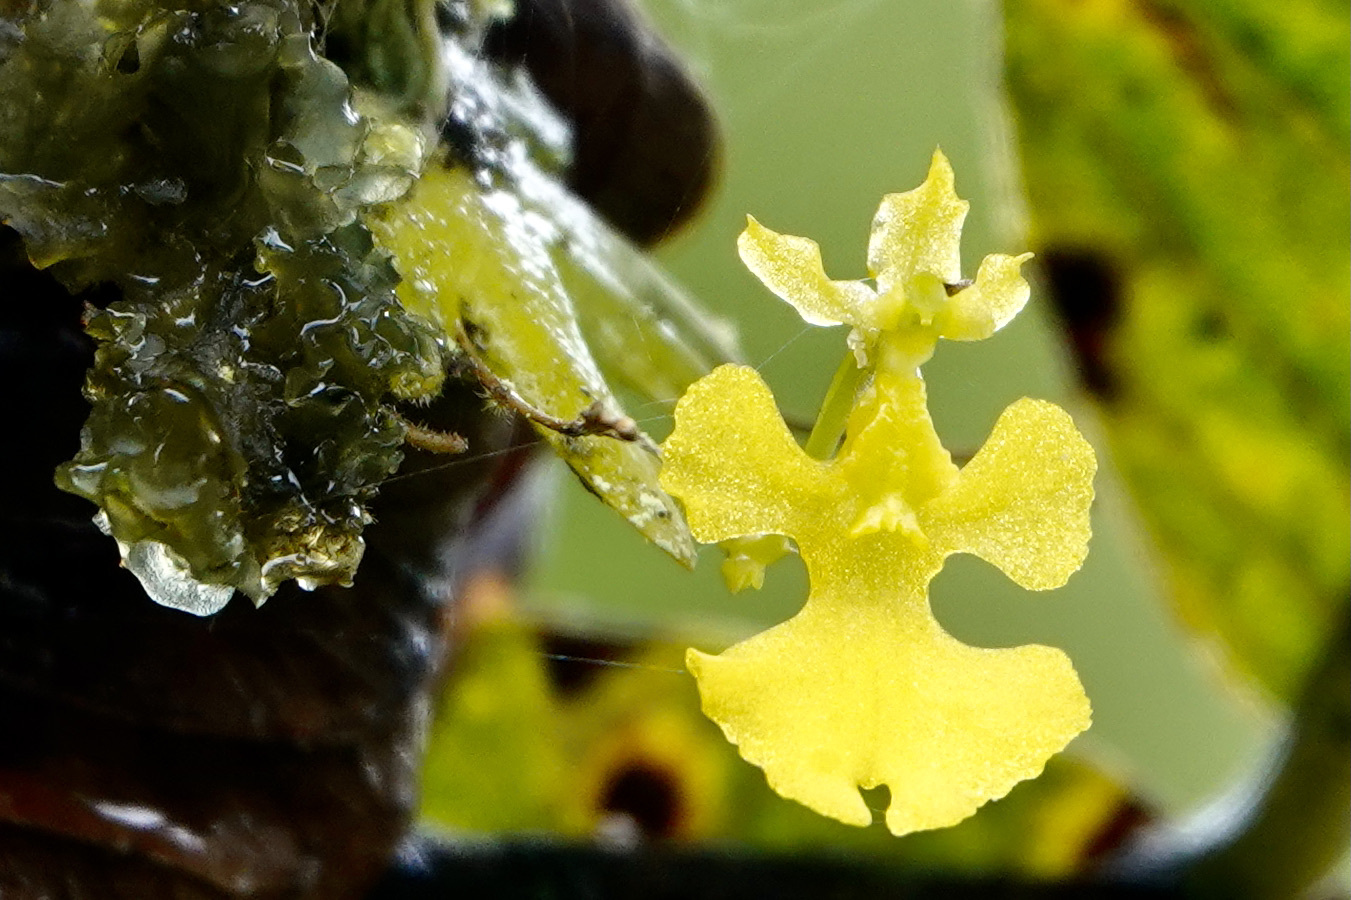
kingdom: Plantae
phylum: Tracheophyta
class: Liliopsida
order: Asparagales
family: Orchidaceae
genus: Erycina
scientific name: Erycina pumilio
